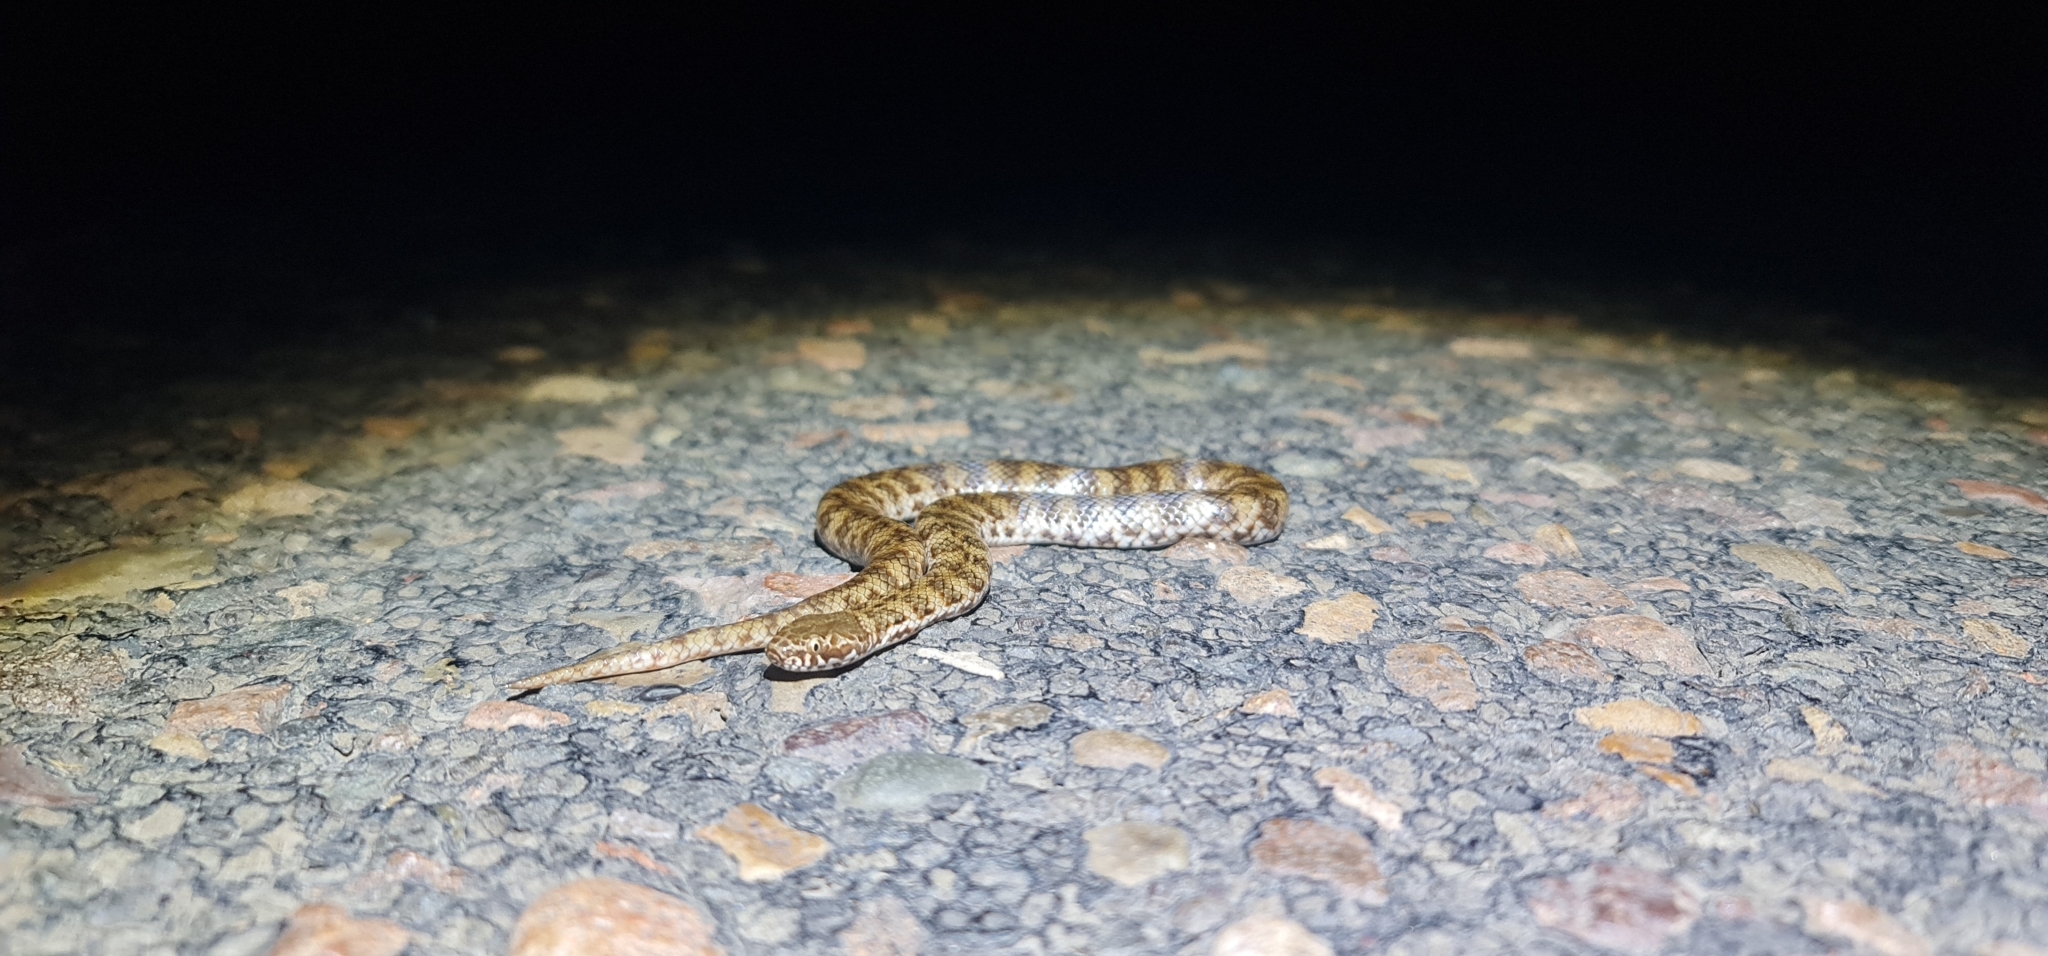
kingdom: Animalia
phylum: Chordata
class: Squamata
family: Elapidae
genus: Denisonia
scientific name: Denisonia devisi
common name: De vis banded snake
